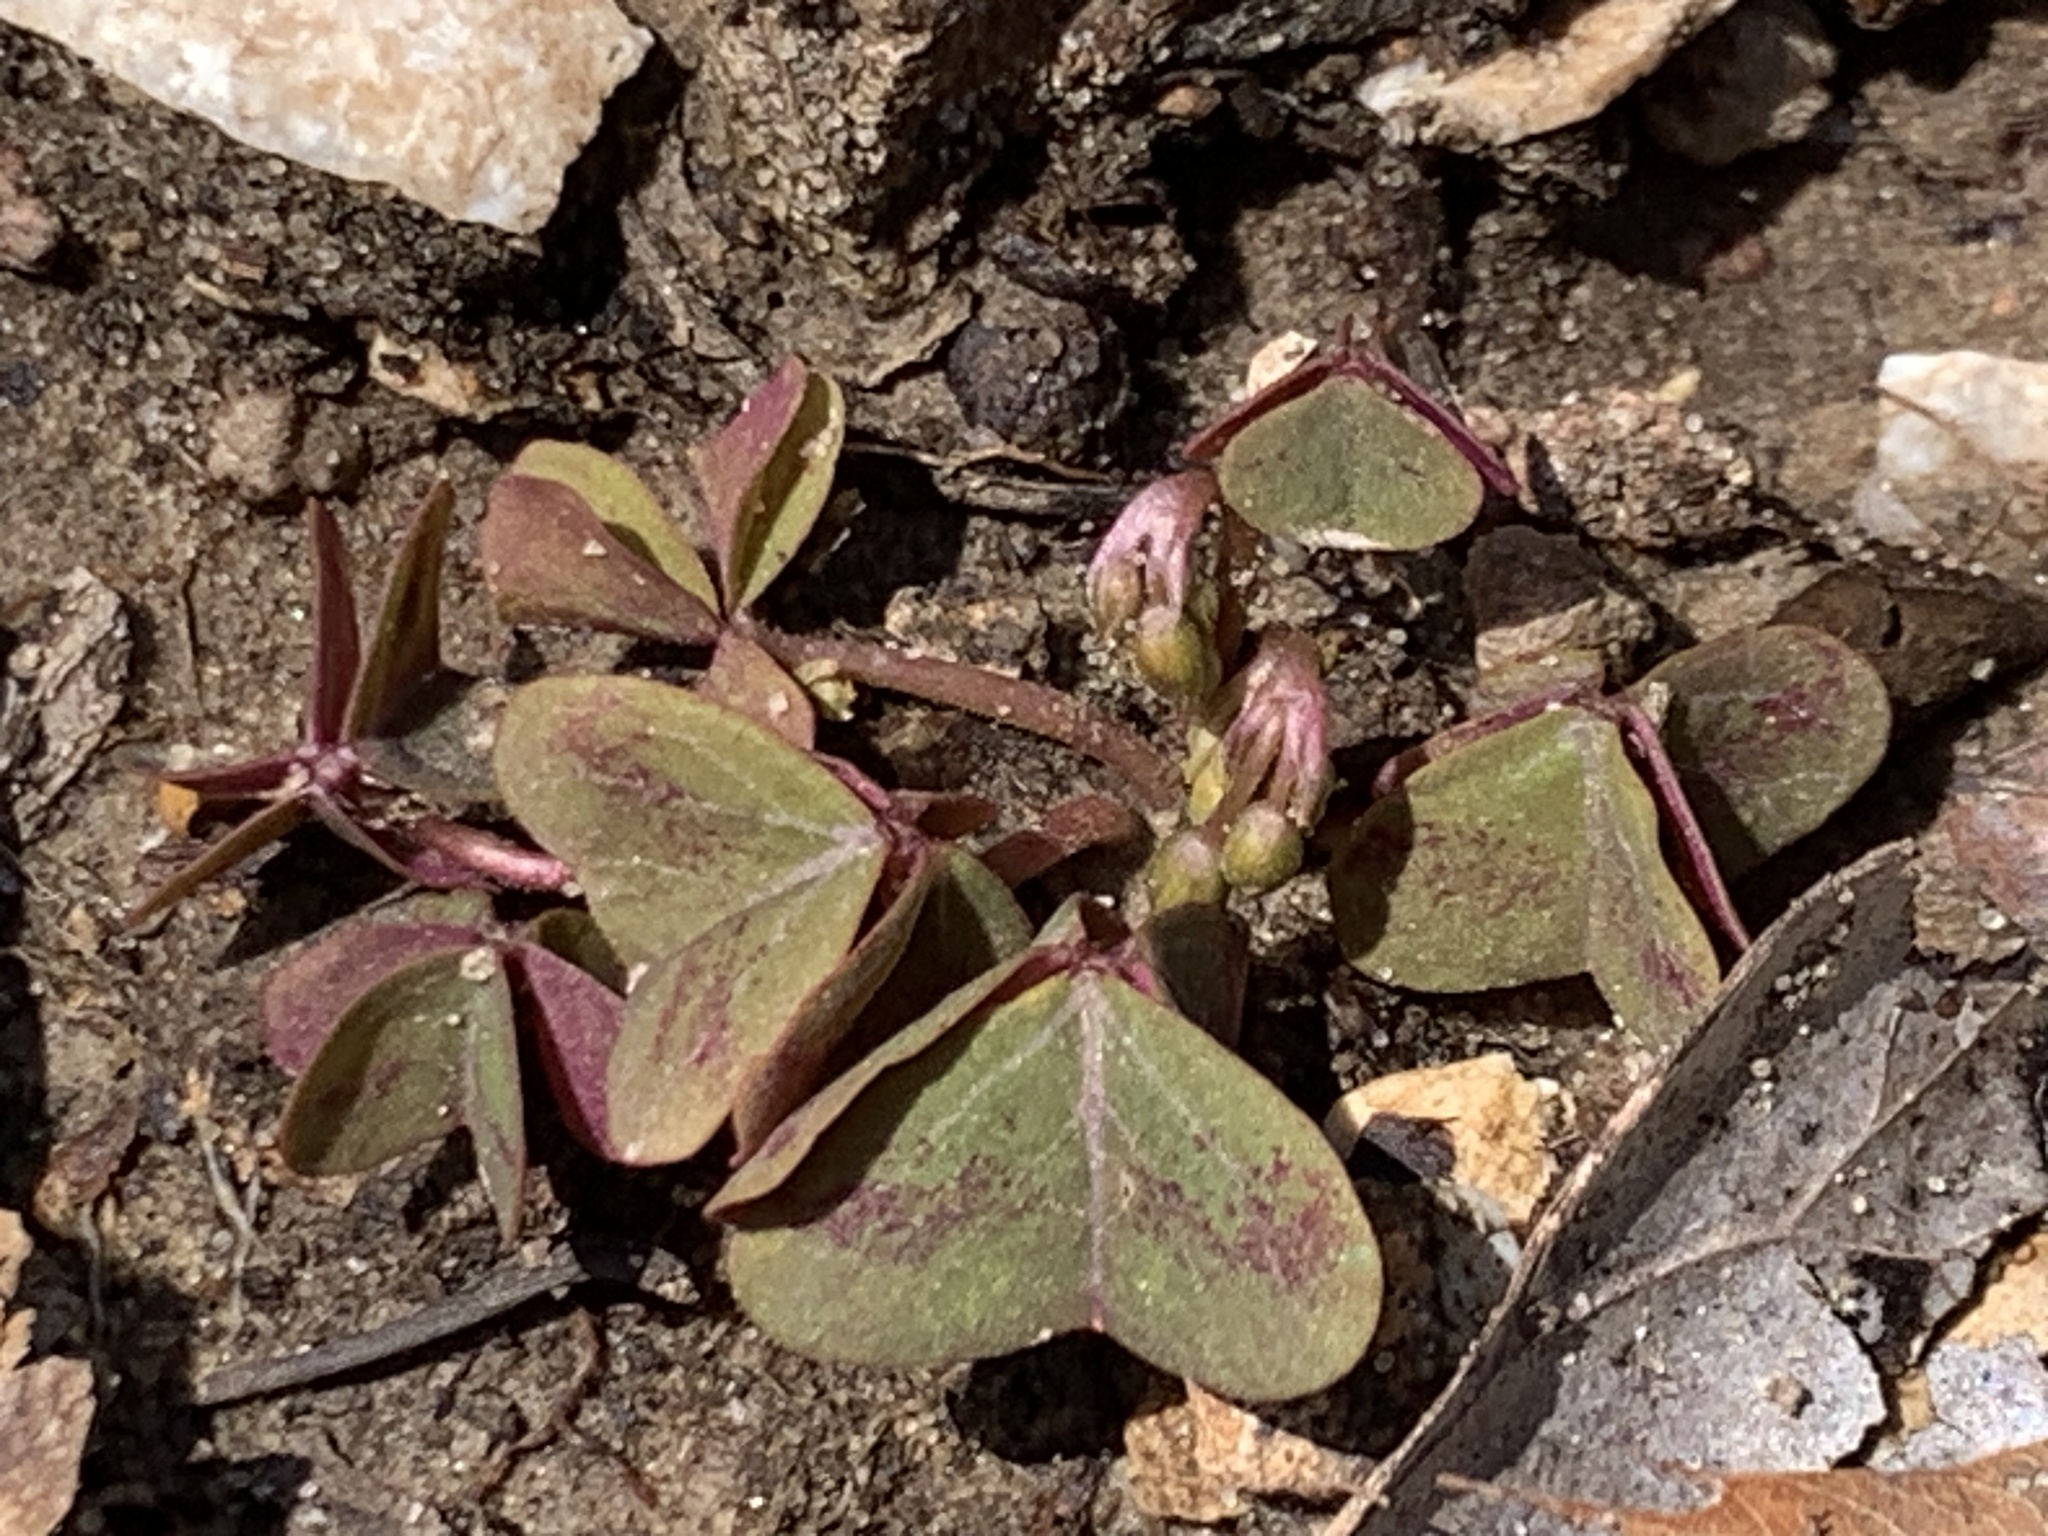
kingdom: Plantae
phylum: Tracheophyta
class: Magnoliopsida
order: Oxalidales
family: Oxalidaceae
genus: Oxalis
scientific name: Oxalis violacea
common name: Violet wood-sorrel
